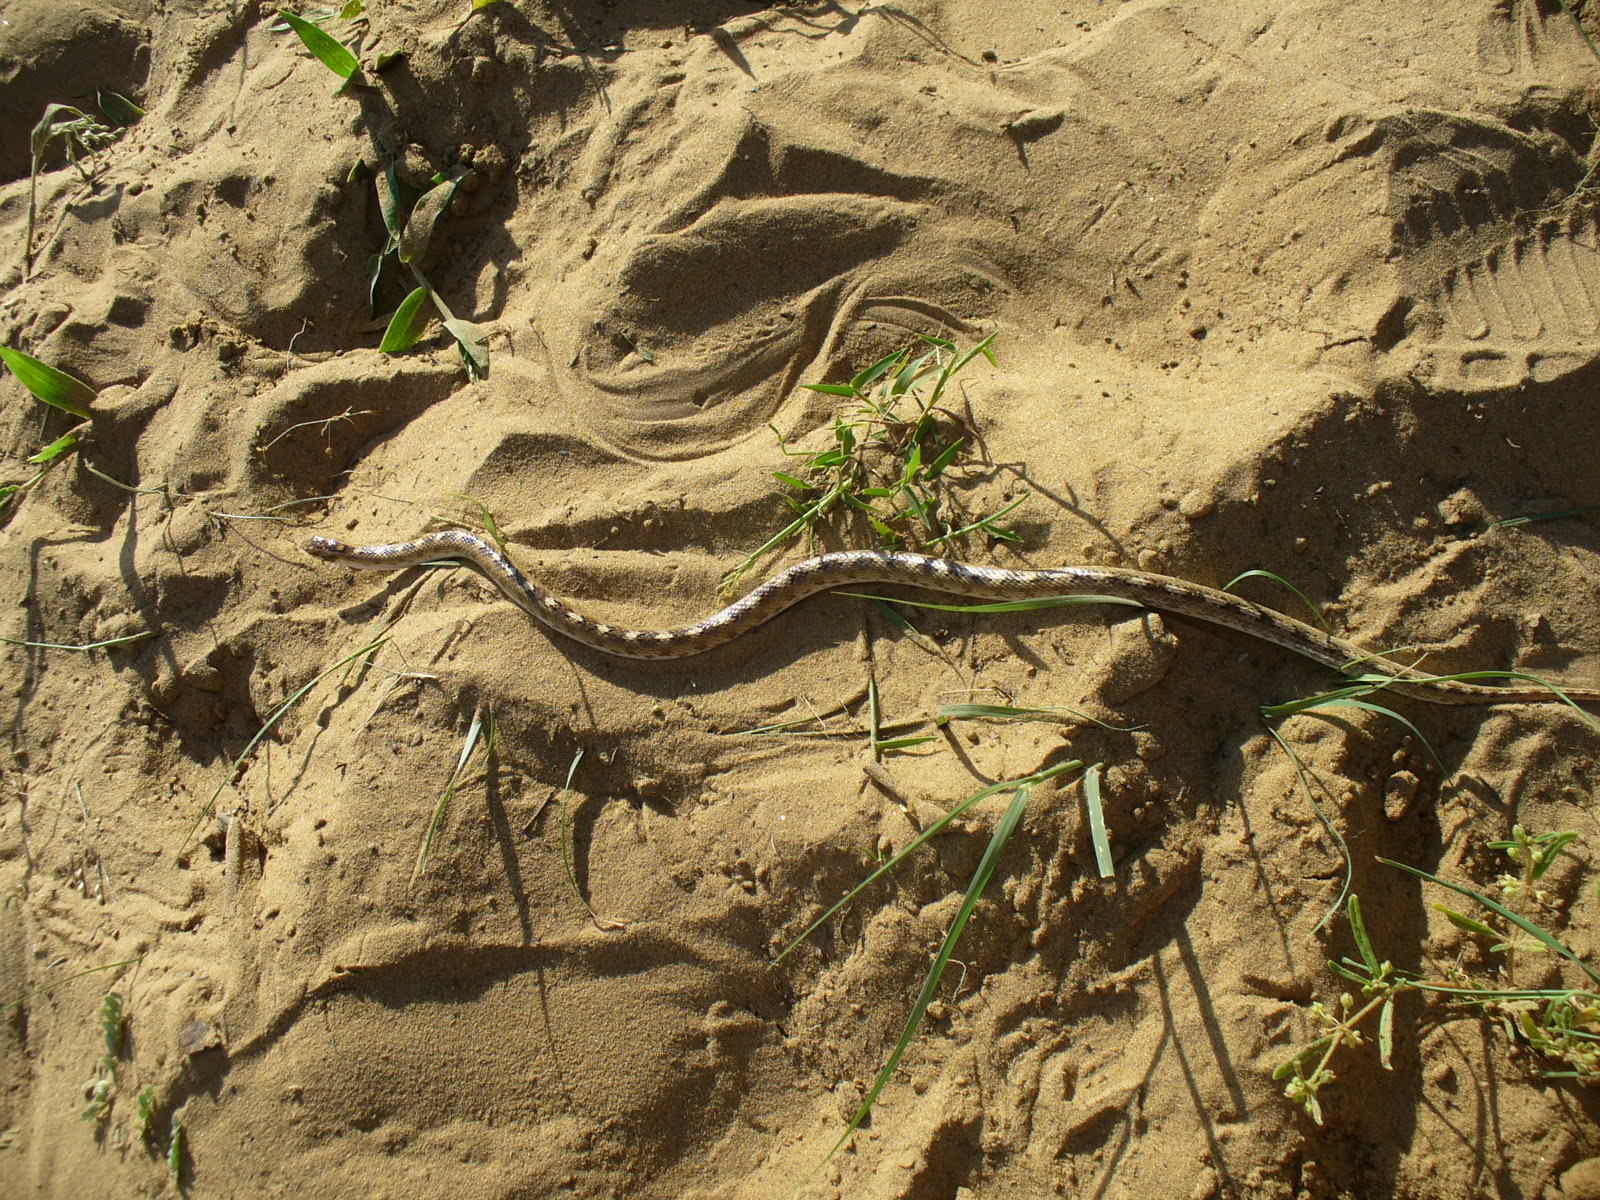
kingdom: Animalia
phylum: Chordata
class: Squamata
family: Colubridae
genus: Lytorhynchus
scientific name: Lytorhynchus paradoxus
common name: Sind longnose sand snake
